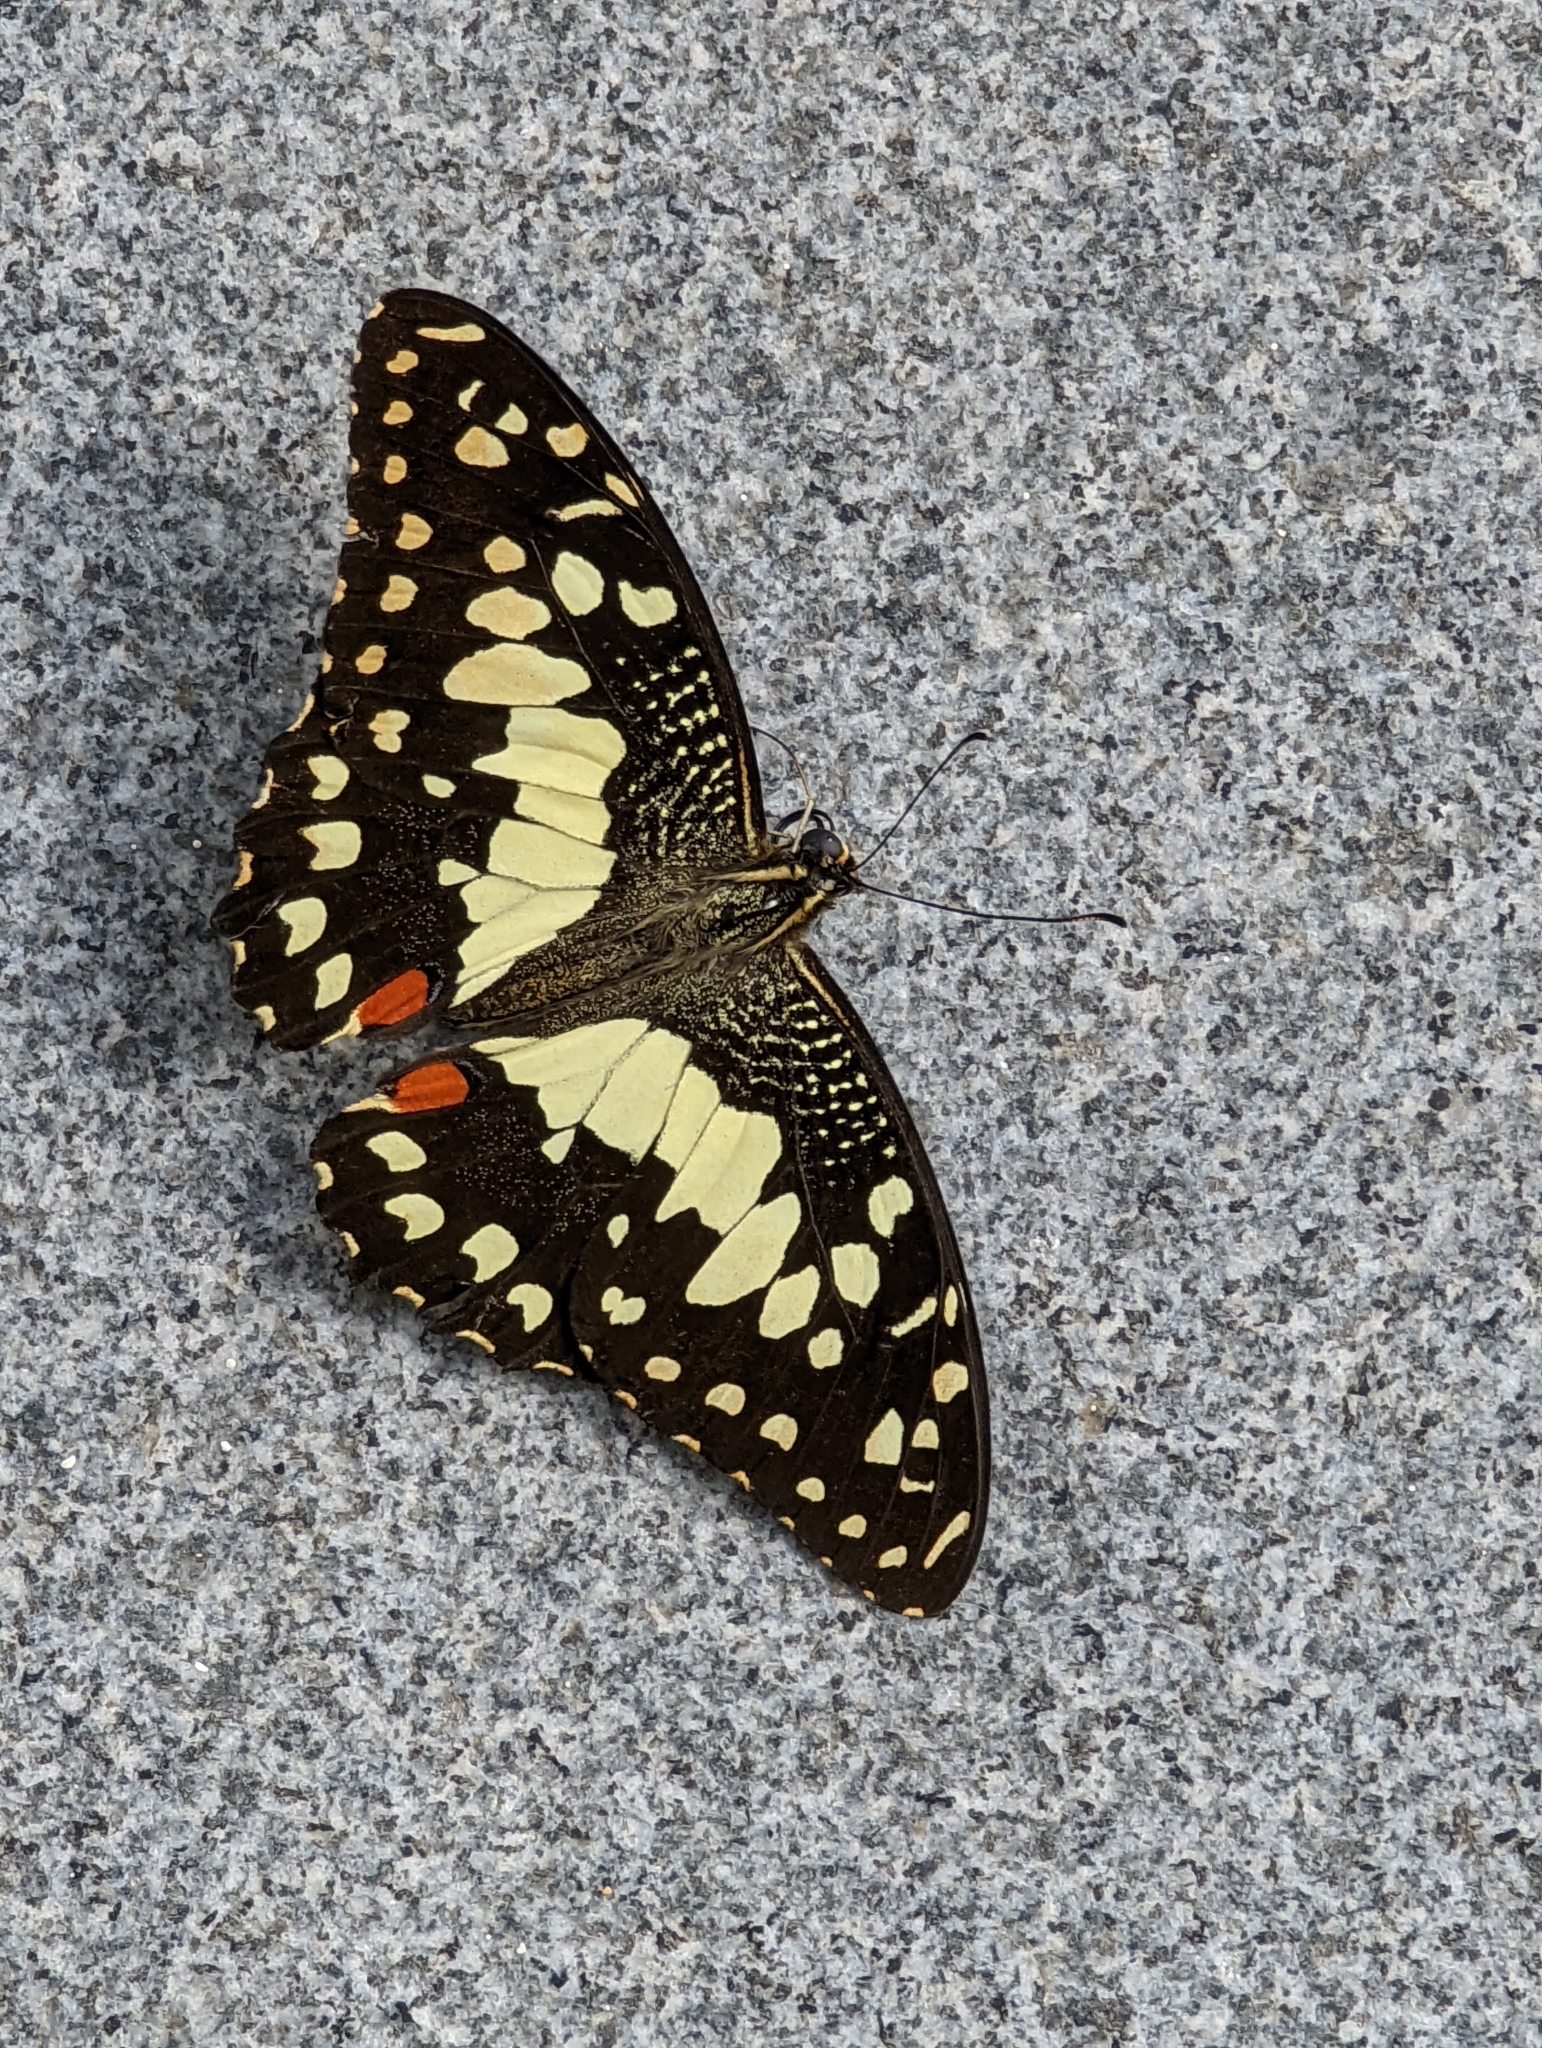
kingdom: Animalia
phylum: Arthropoda
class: Insecta
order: Lepidoptera
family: Papilionidae
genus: Papilio
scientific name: Papilio demoleus
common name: Lime butterfly
